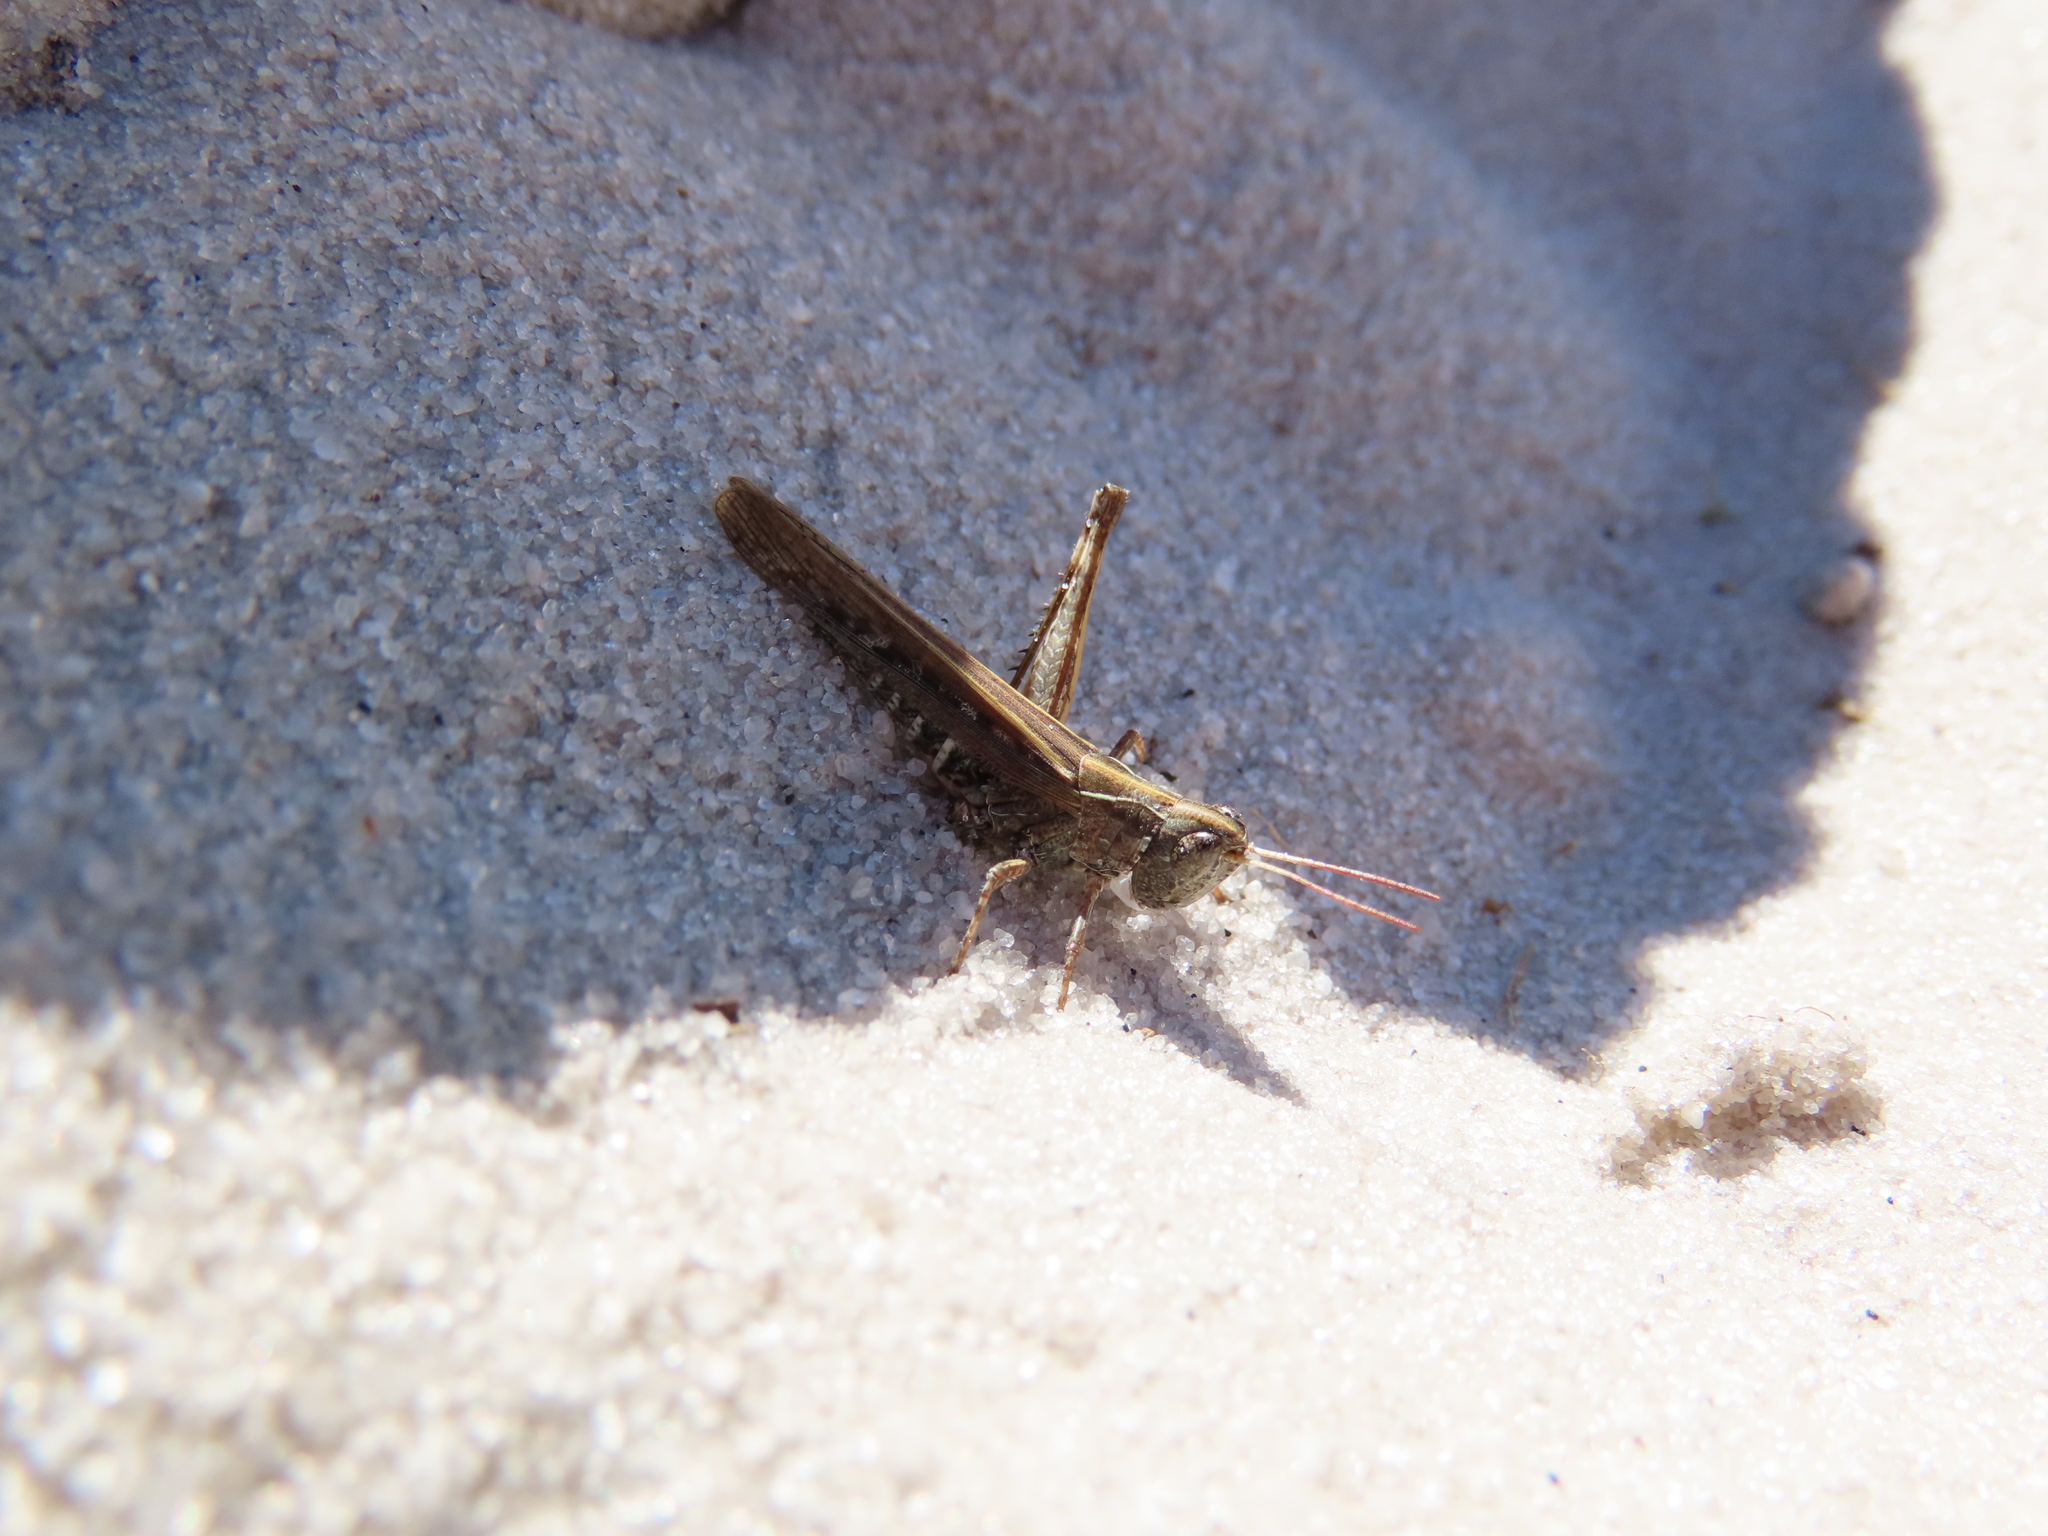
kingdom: Animalia
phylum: Arthropoda
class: Insecta
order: Orthoptera
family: Acrididae
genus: Orphulella
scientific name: Orphulella pelidna
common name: Spotted-wing grasshopper
